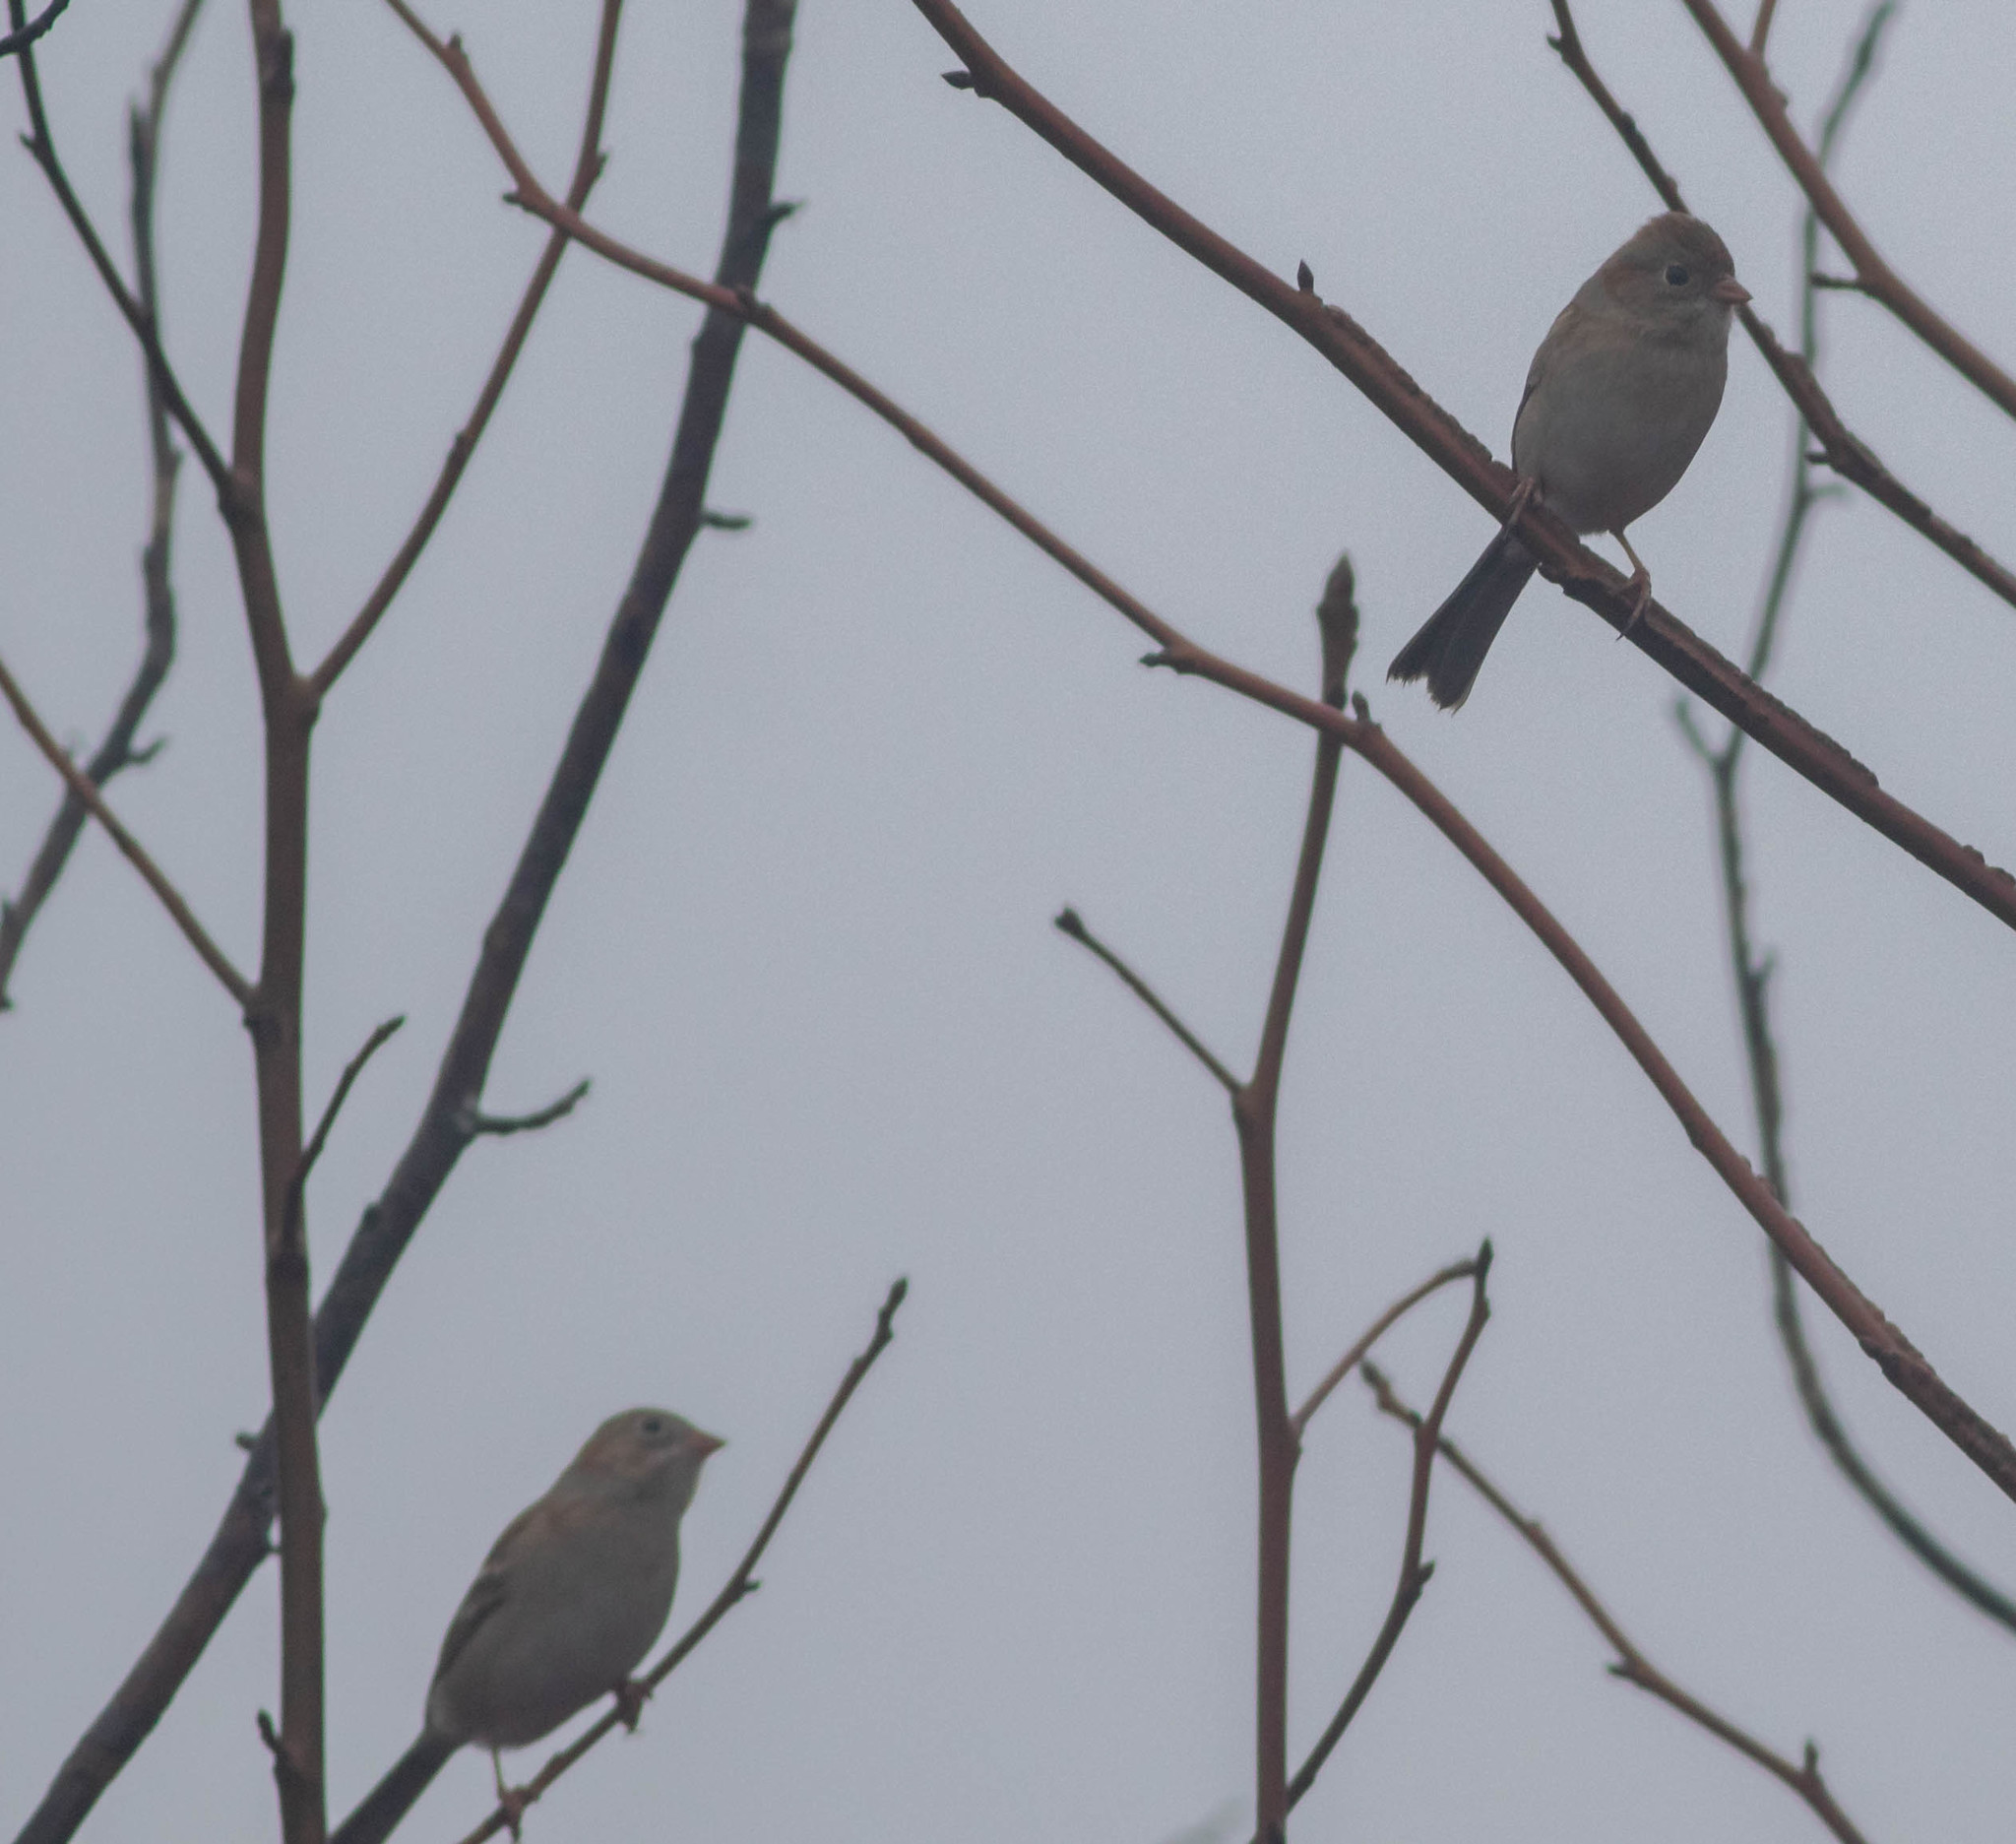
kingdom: Animalia
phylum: Chordata
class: Aves
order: Passeriformes
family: Passerellidae
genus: Spizella
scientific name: Spizella pusilla
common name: Field sparrow
